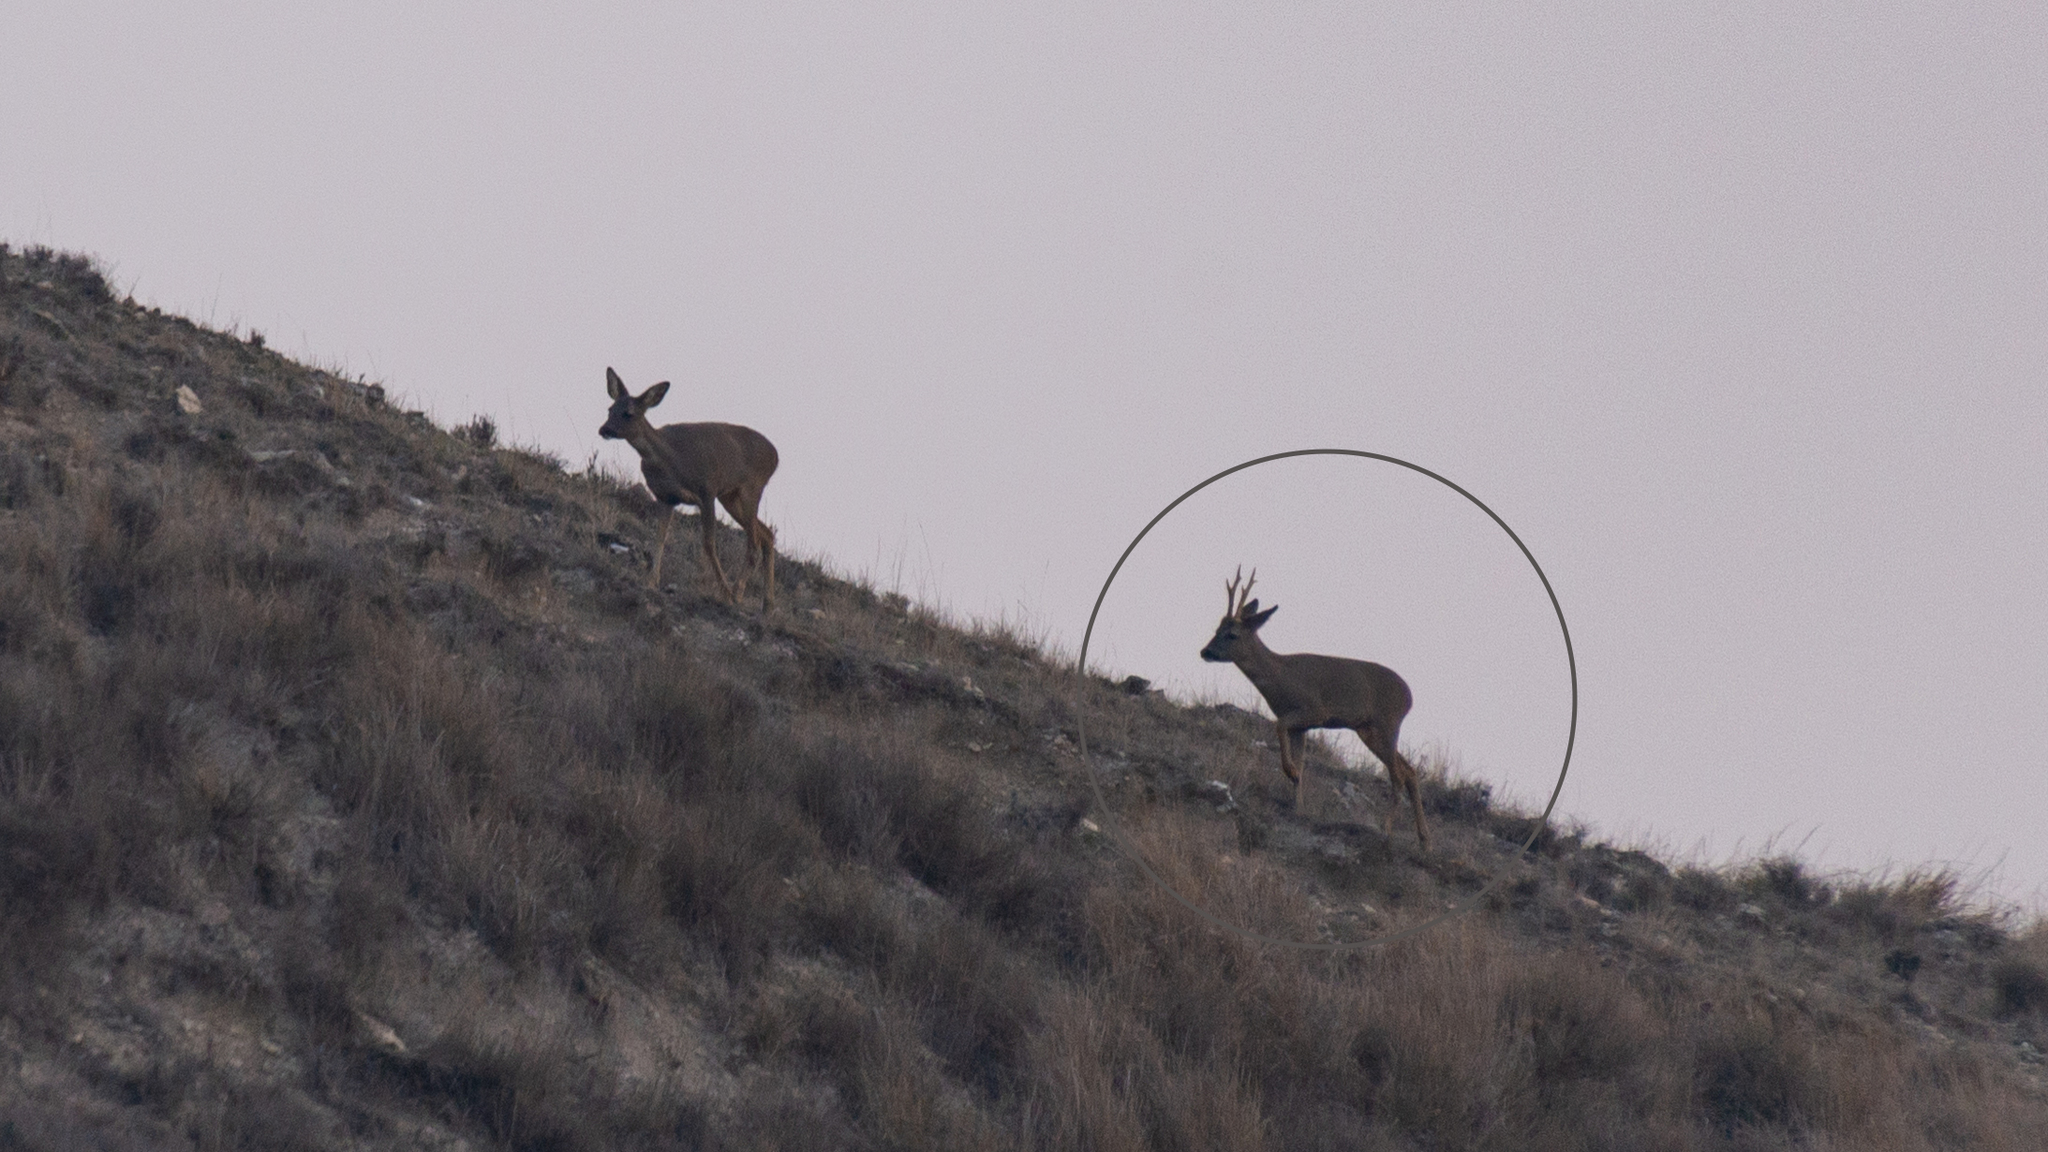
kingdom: Animalia
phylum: Chordata
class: Mammalia
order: Artiodactyla
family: Cervidae
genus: Capreolus
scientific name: Capreolus capreolus
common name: Western roe deer
